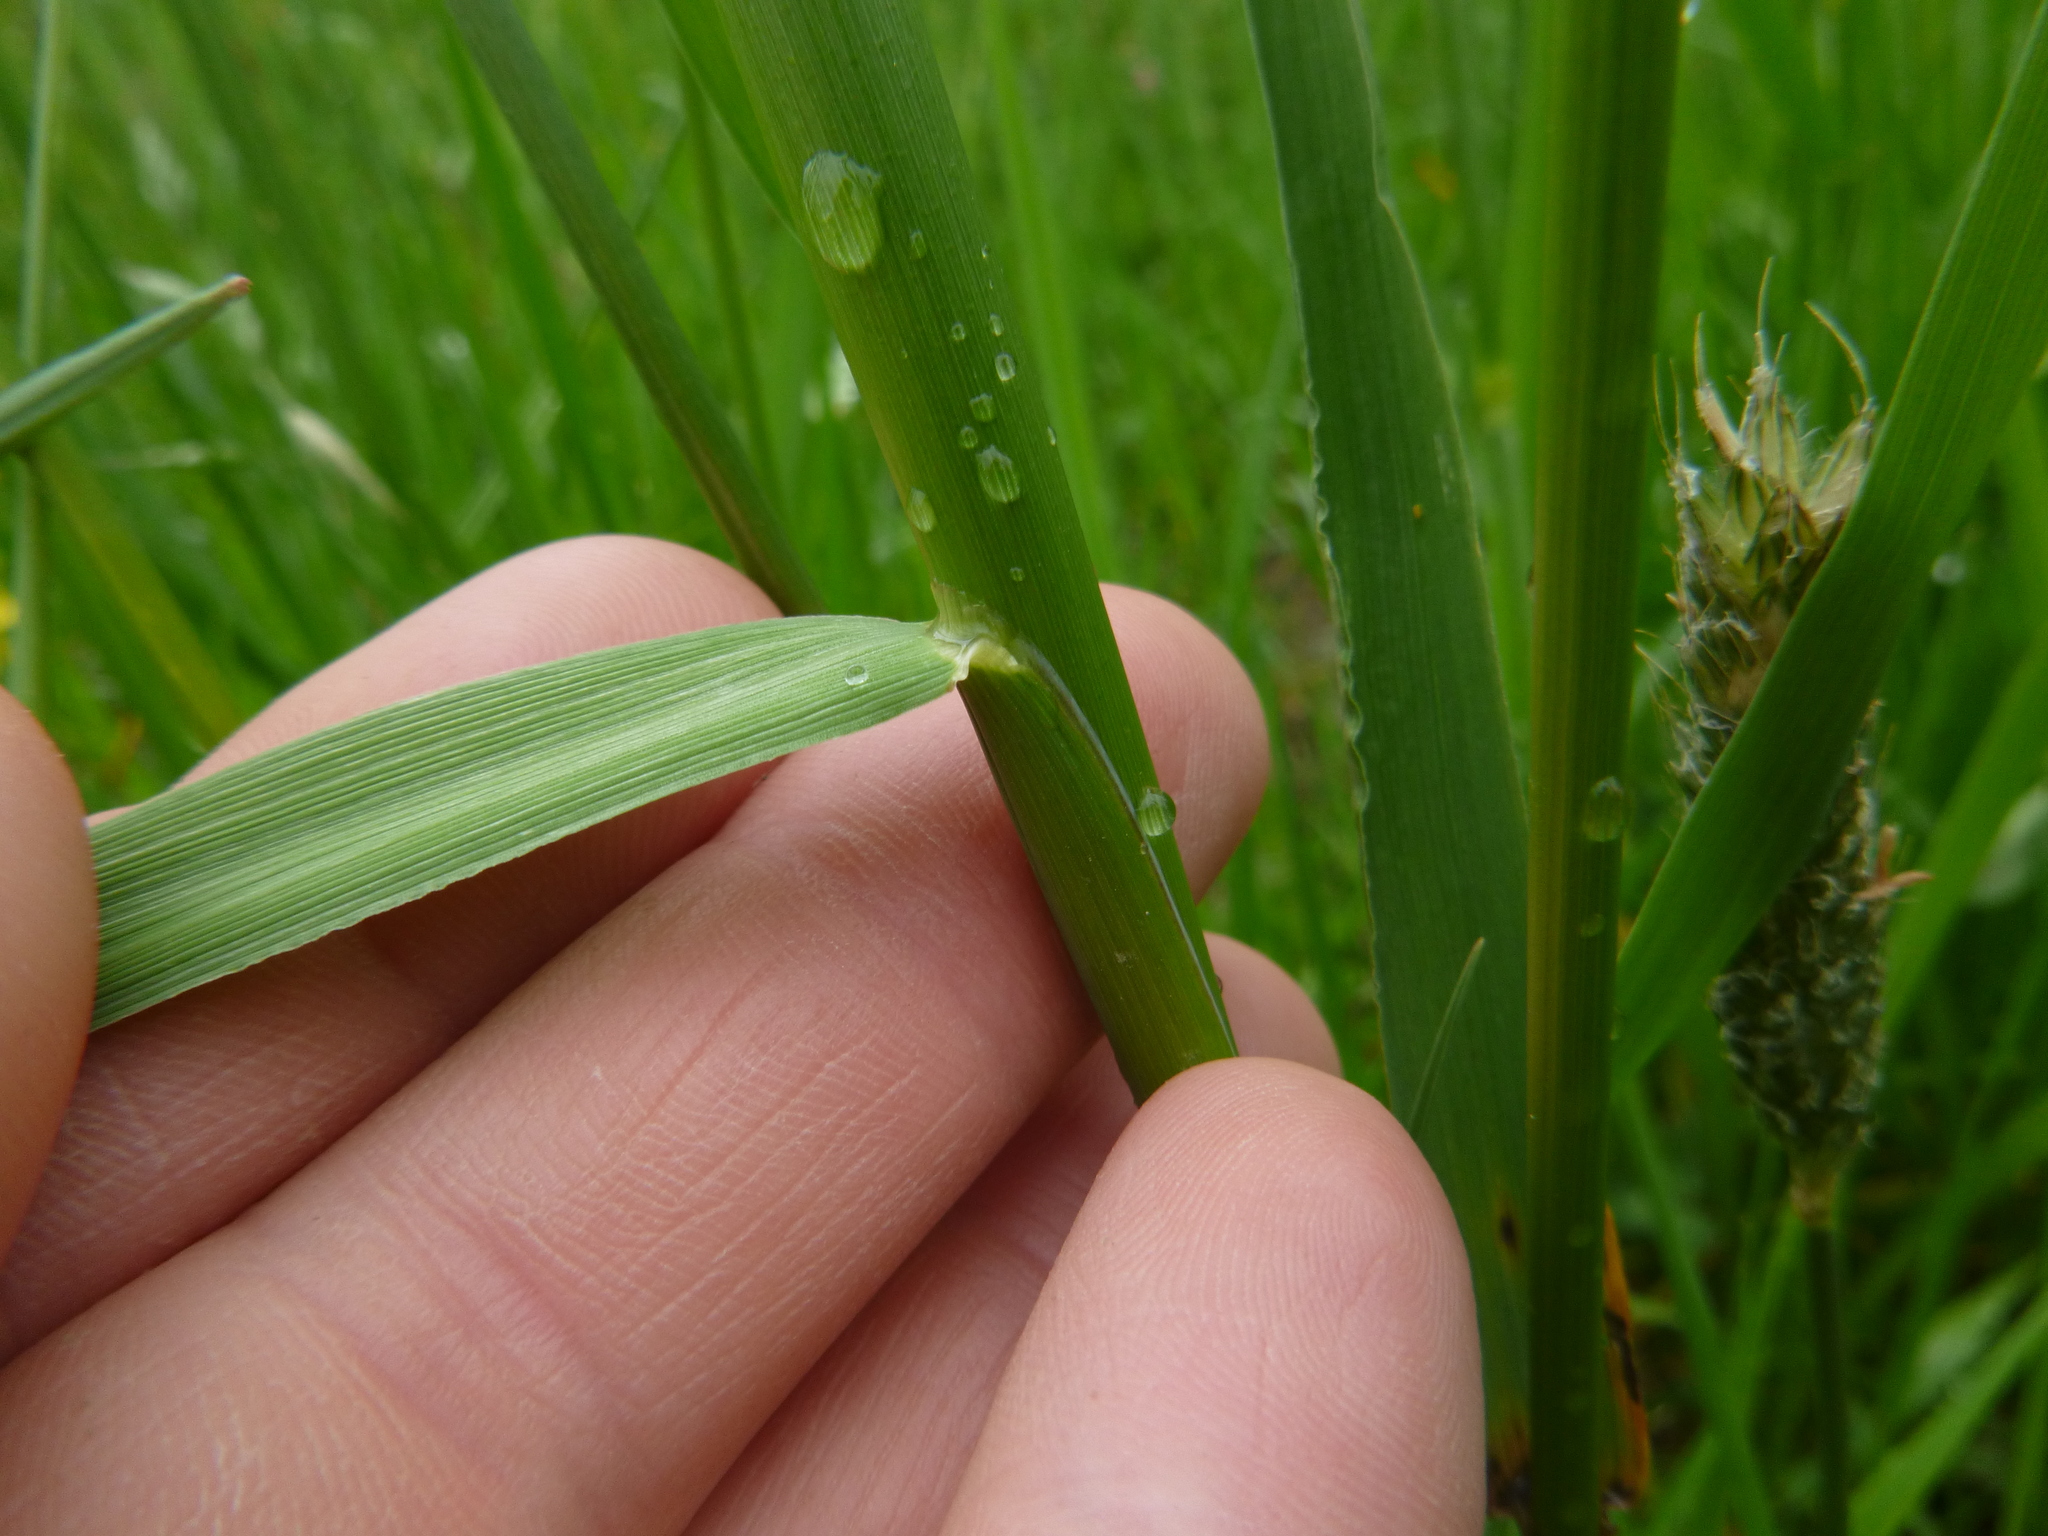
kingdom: Plantae
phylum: Tracheophyta
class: Liliopsida
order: Poales
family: Poaceae
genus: Alopecurus
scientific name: Alopecurus pratensis
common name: Meadow foxtail
